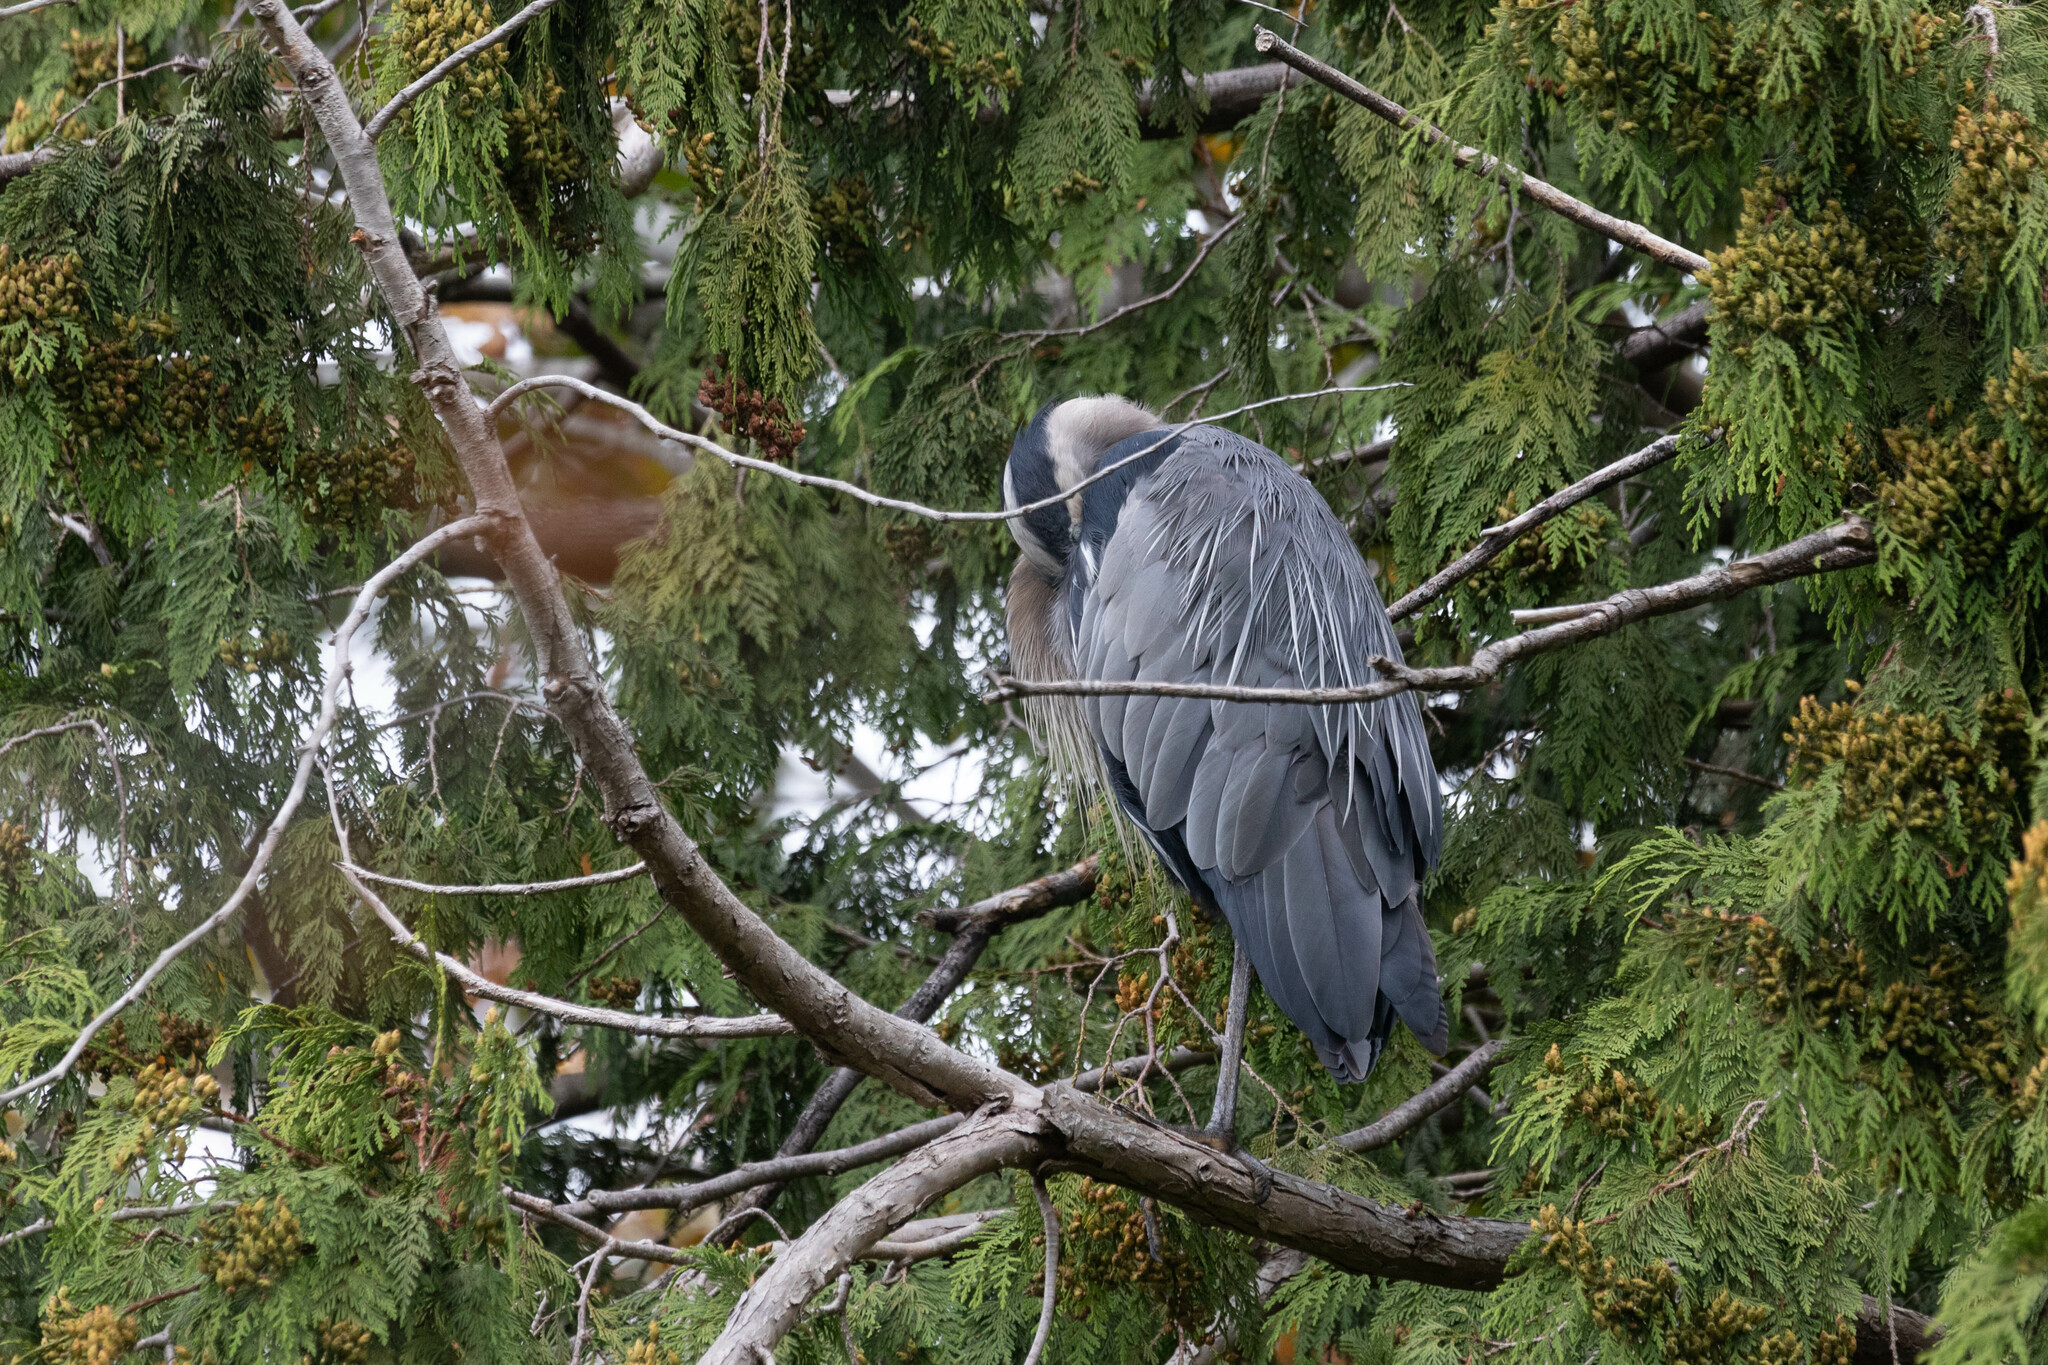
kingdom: Animalia
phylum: Chordata
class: Aves
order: Pelecaniformes
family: Ardeidae
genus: Ardea
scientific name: Ardea herodias
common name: Great blue heron
